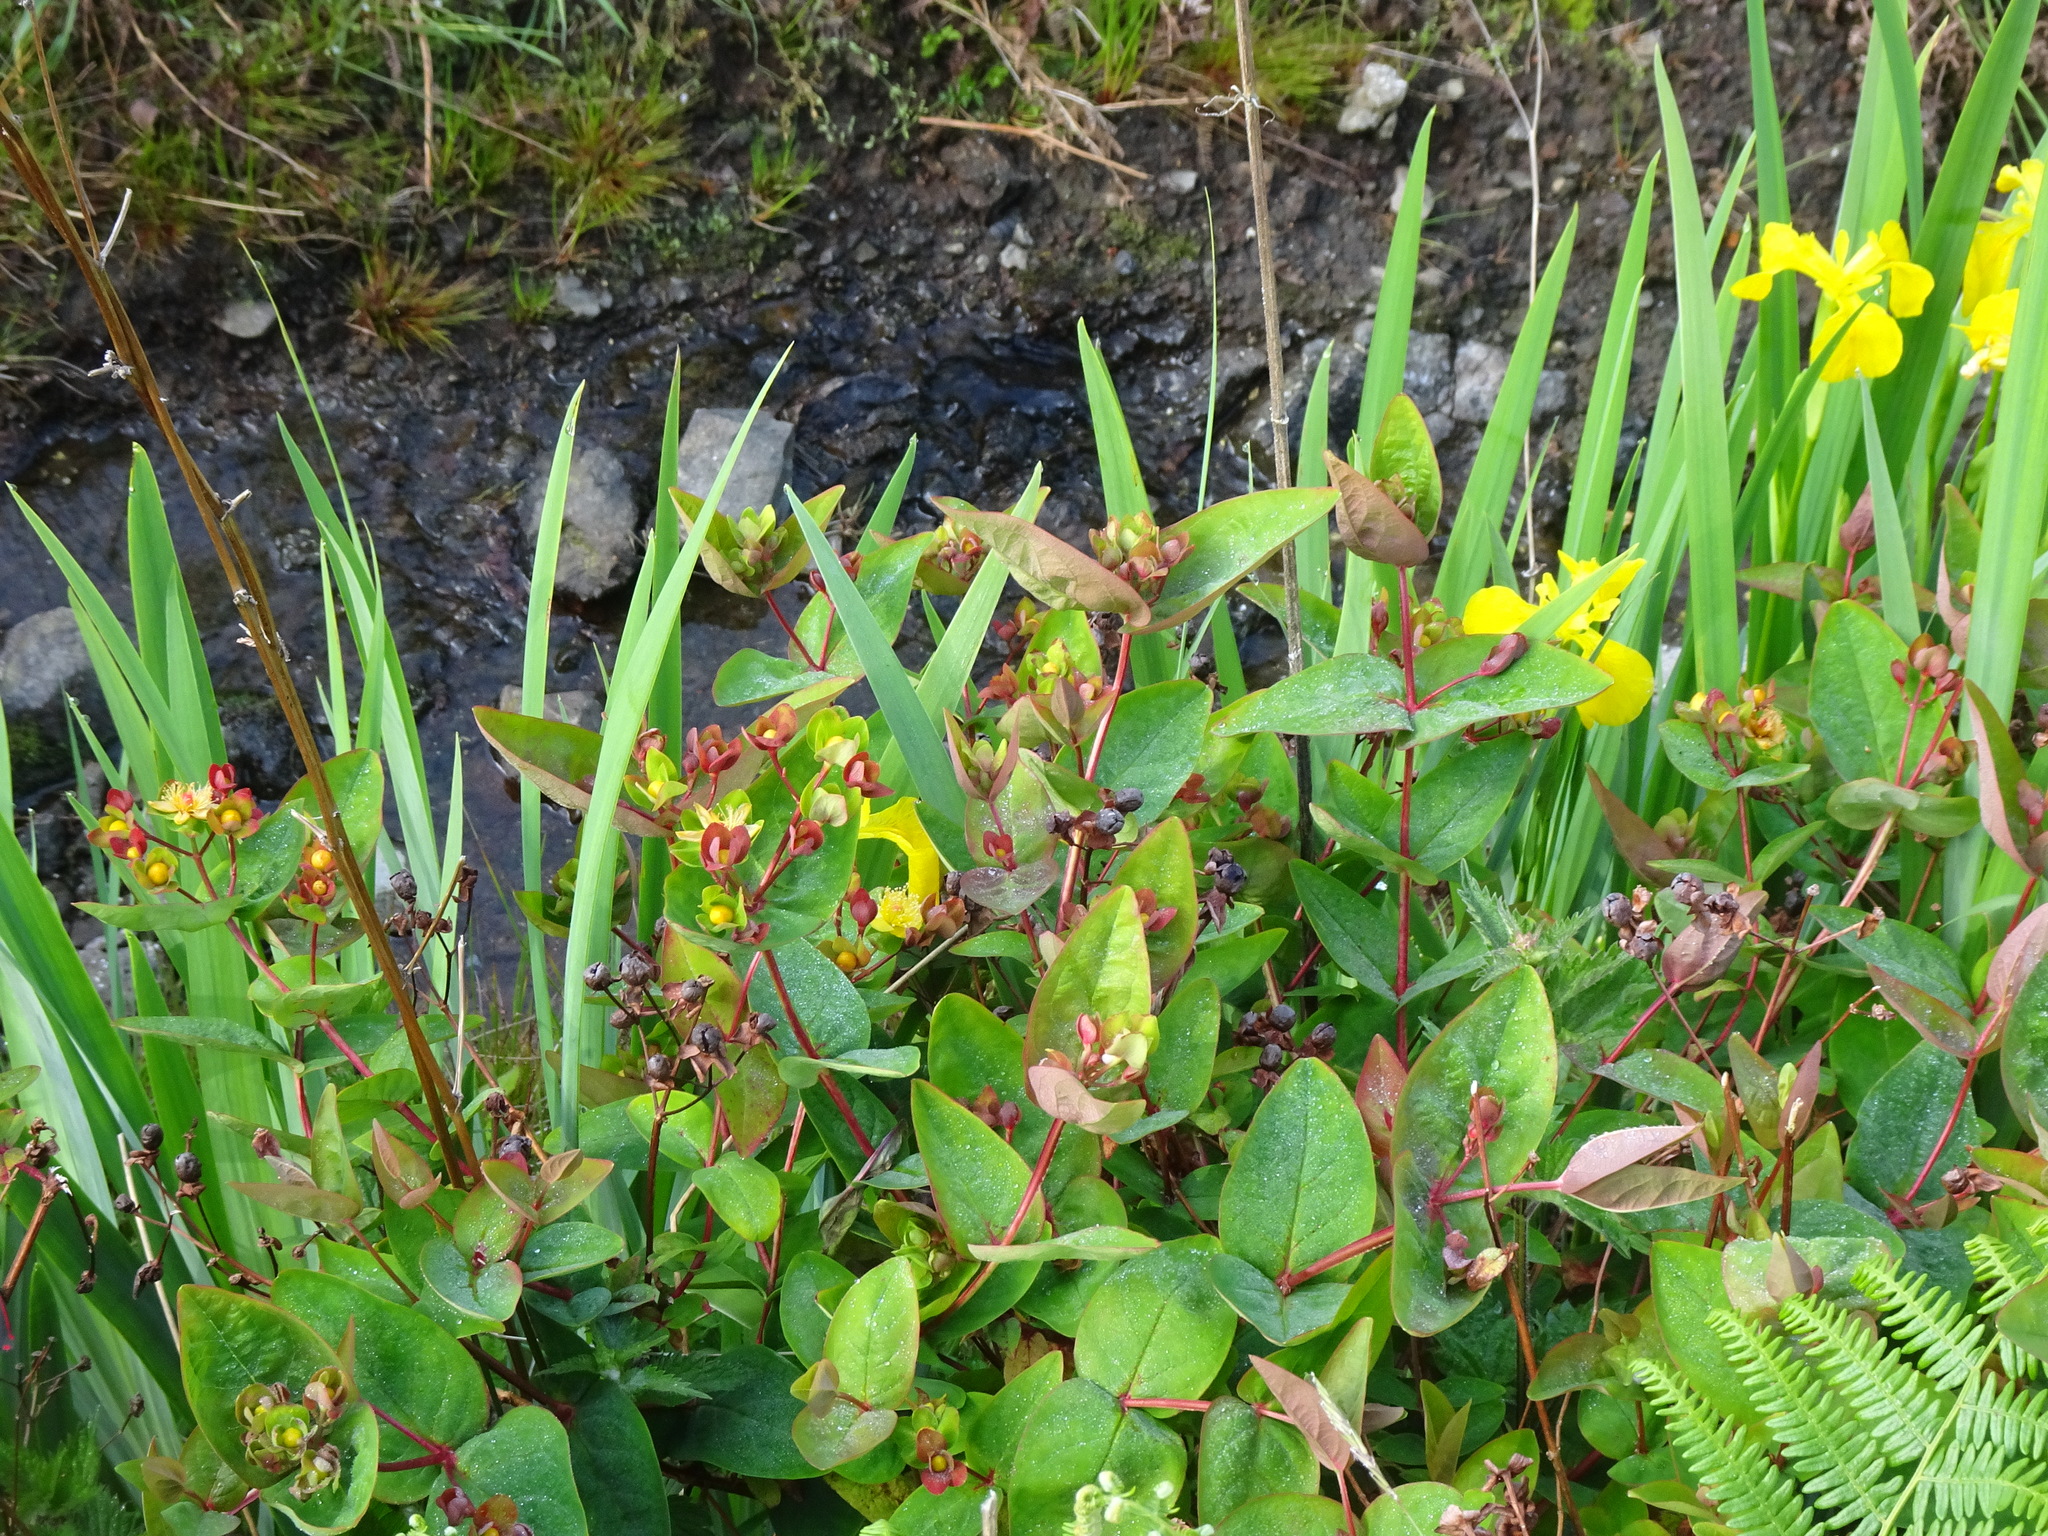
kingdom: Plantae
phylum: Tracheophyta
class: Magnoliopsida
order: Malpighiales
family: Hypericaceae
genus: Hypericum
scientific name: Hypericum androsaemum
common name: Sweet-amber
